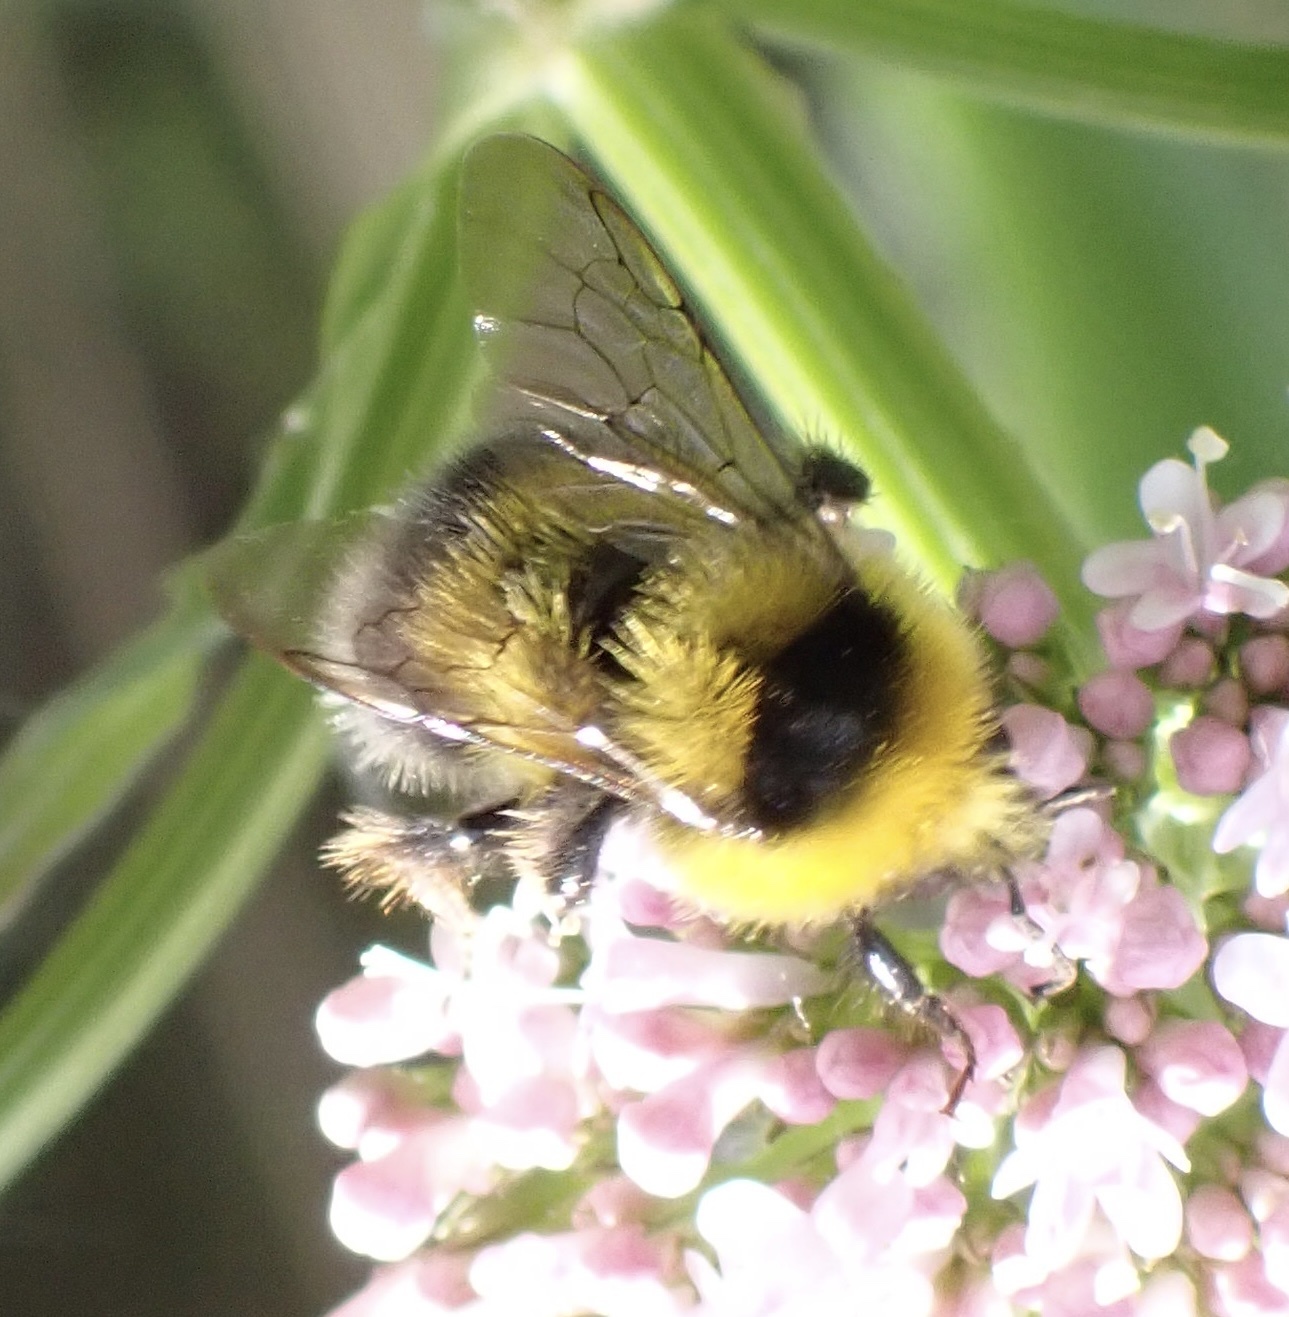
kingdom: Animalia
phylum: Arthropoda
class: Insecta
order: Hymenoptera
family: Apidae
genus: Bombus
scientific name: Bombus jonellus
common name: Heath humble-bee
